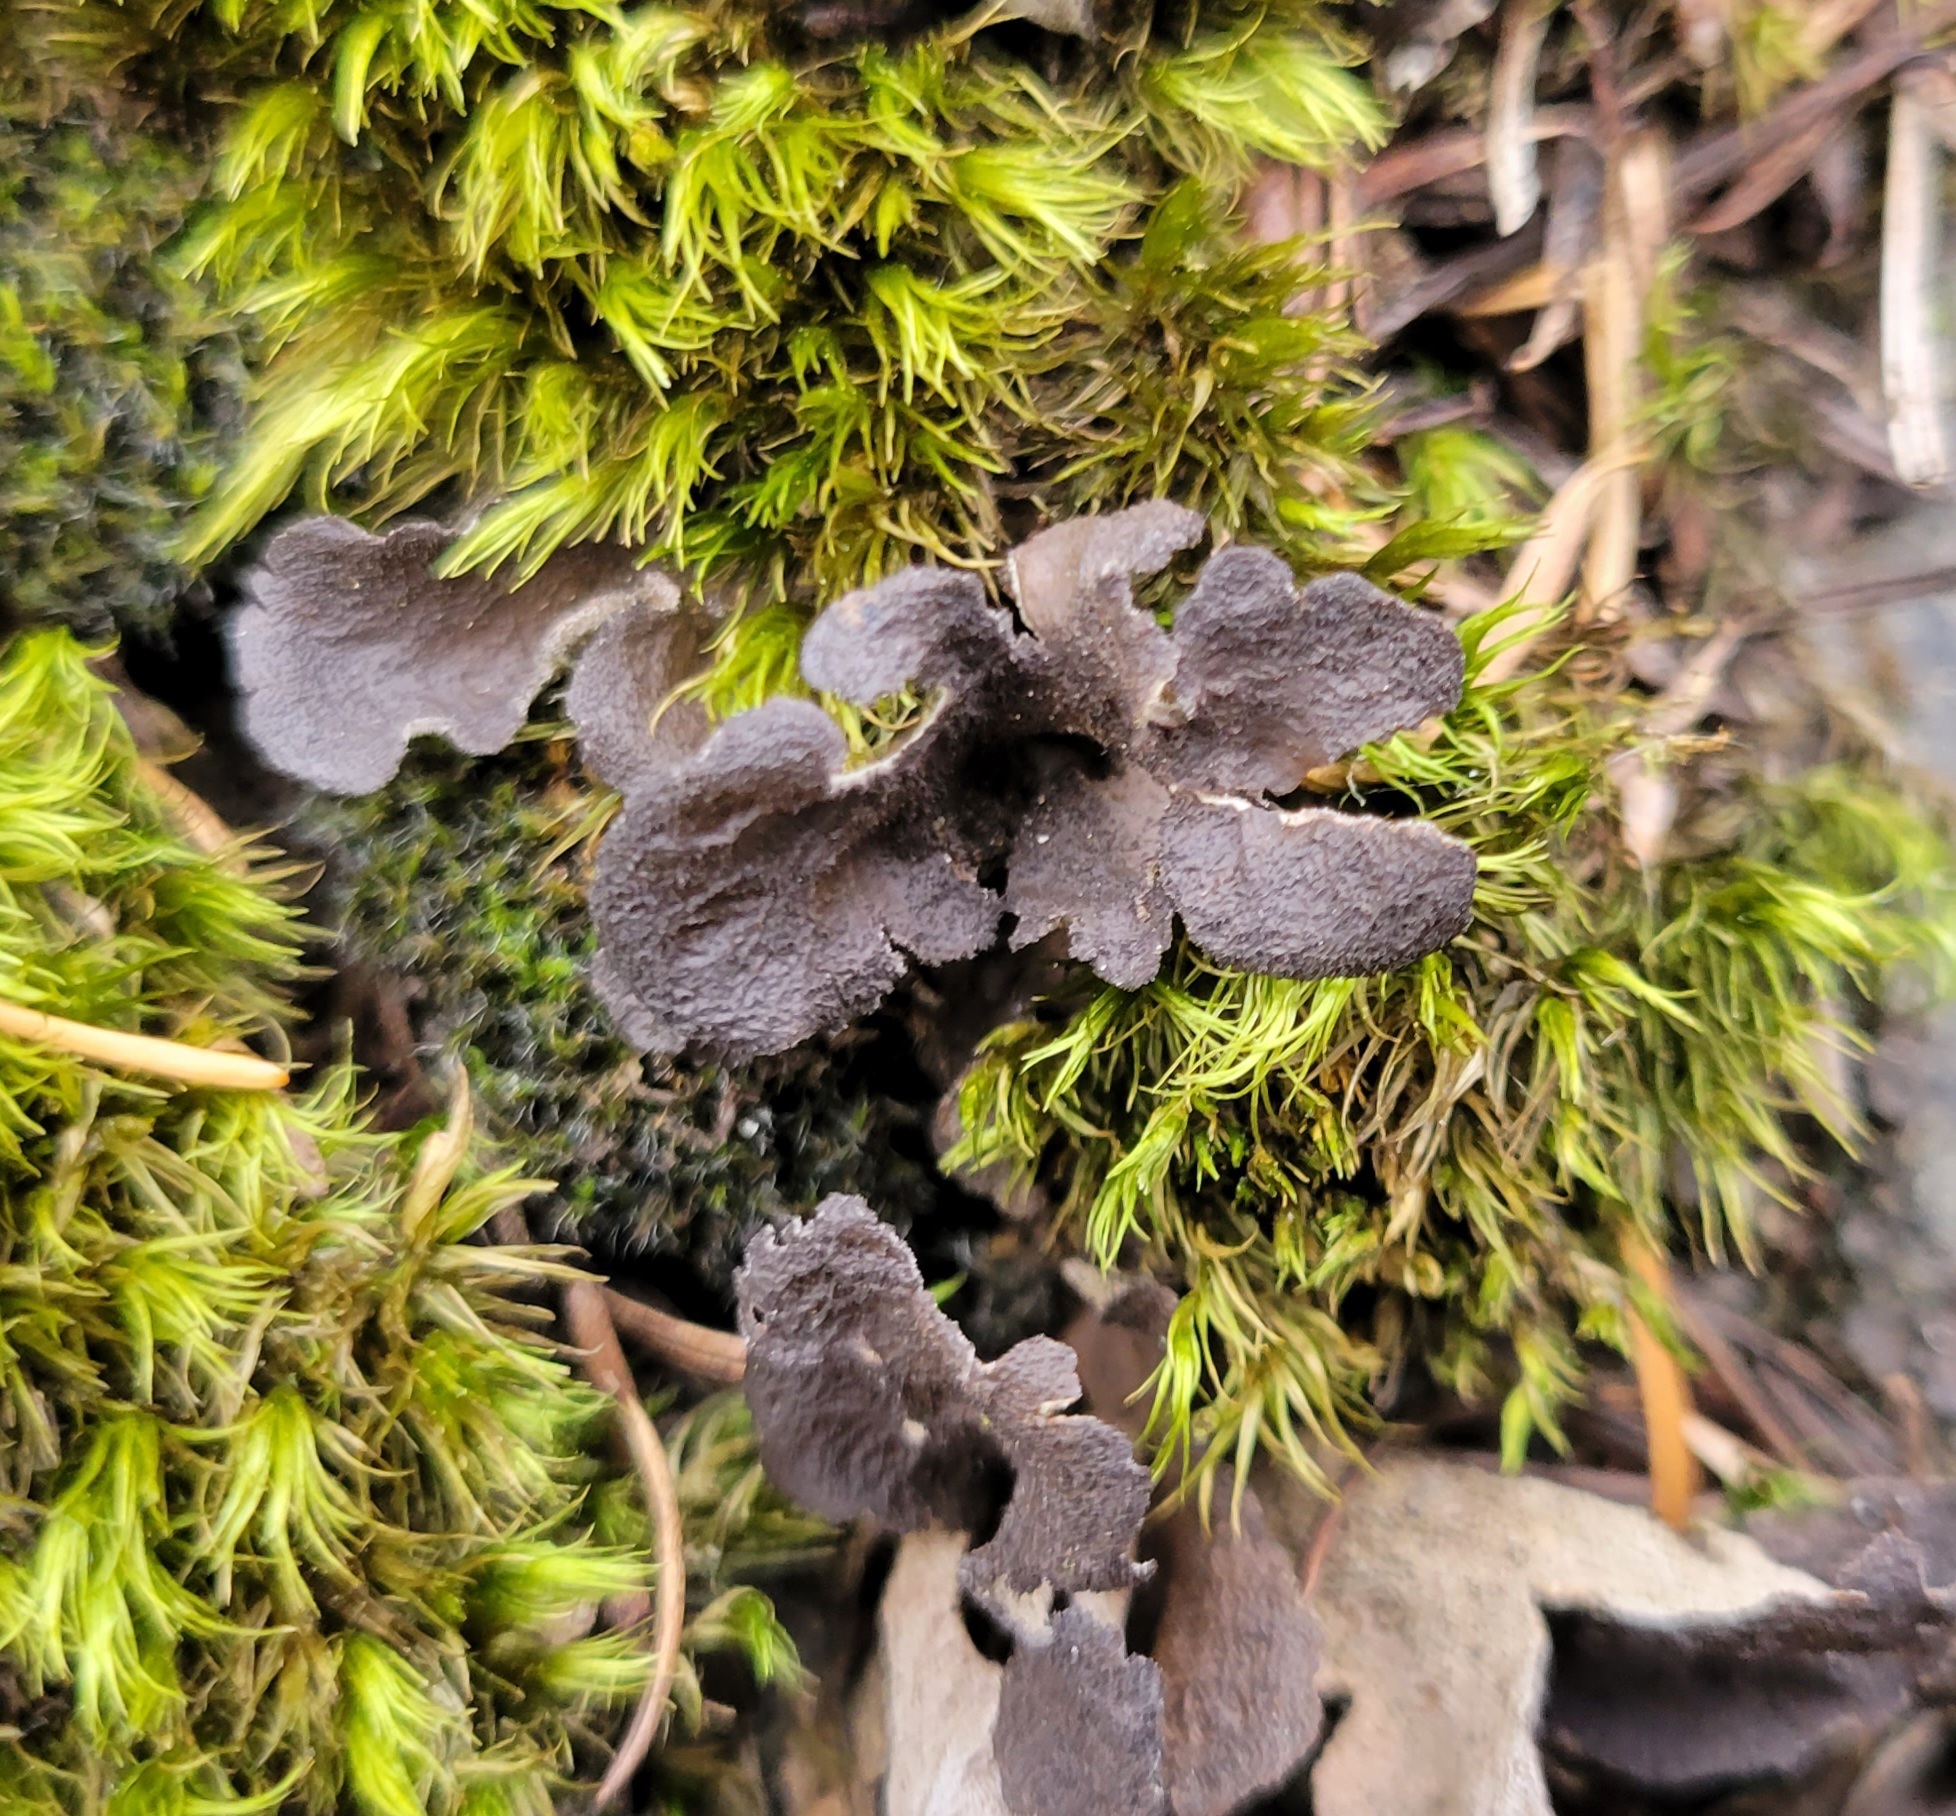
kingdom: Fungi
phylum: Ascomycota
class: Lecanoromycetes
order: Peltigerales
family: Lobariaceae
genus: Sticta
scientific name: Sticta
